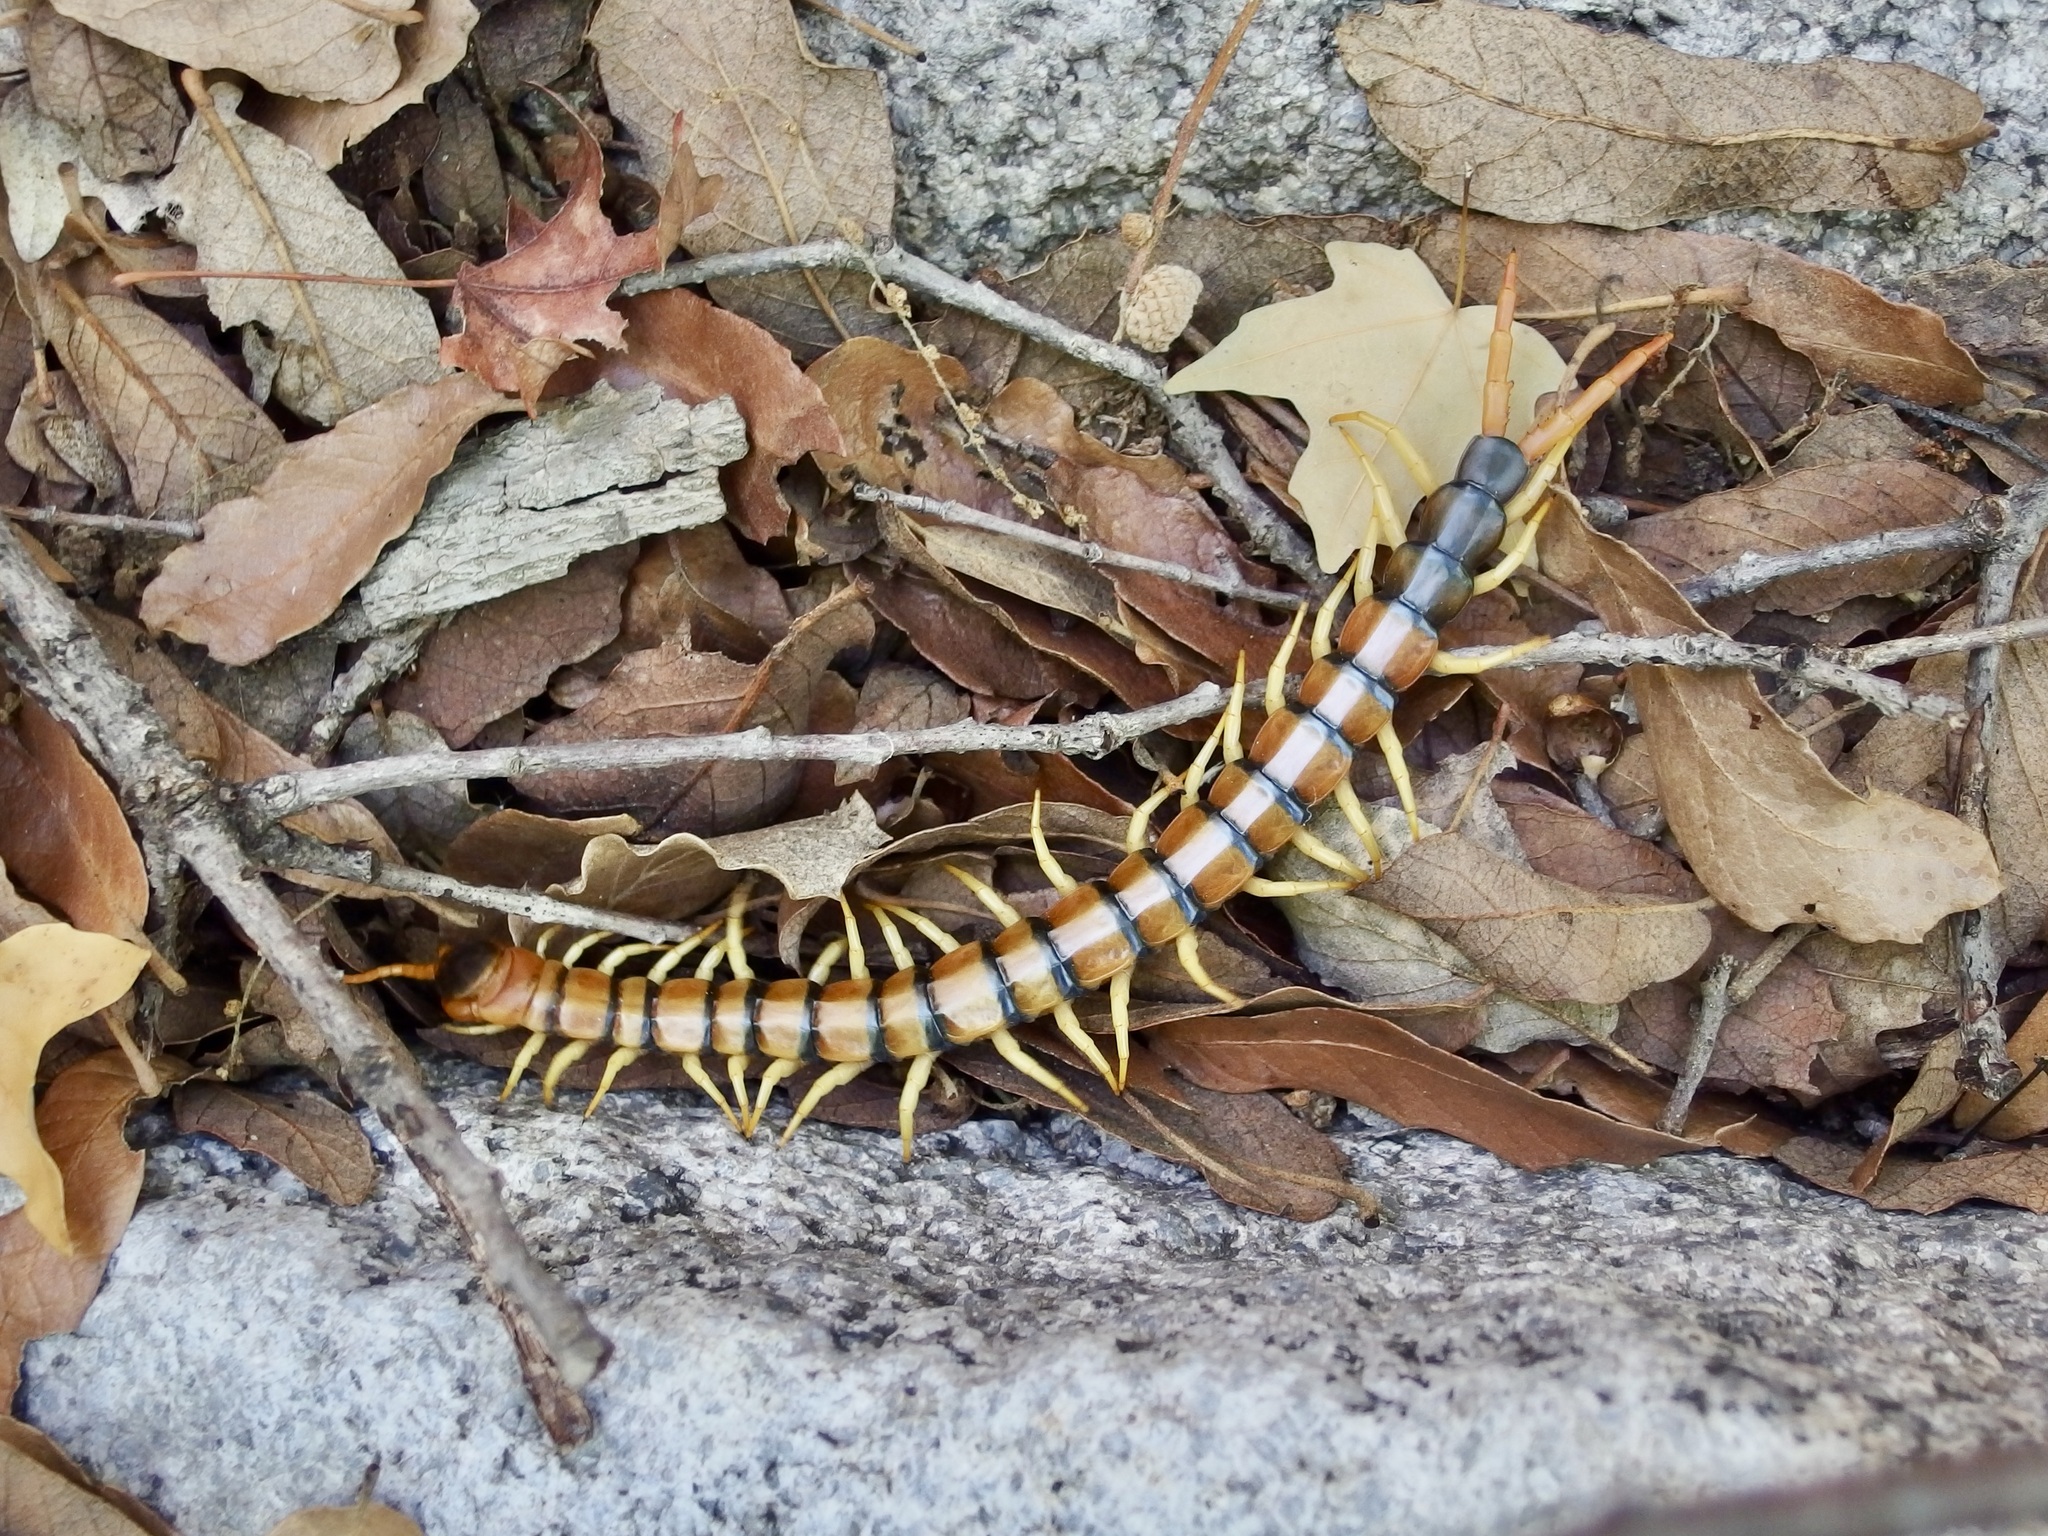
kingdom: Animalia
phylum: Arthropoda
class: Chilopoda
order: Scolopendromorpha
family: Scolopendridae
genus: Scolopendra
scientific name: Scolopendra heros
